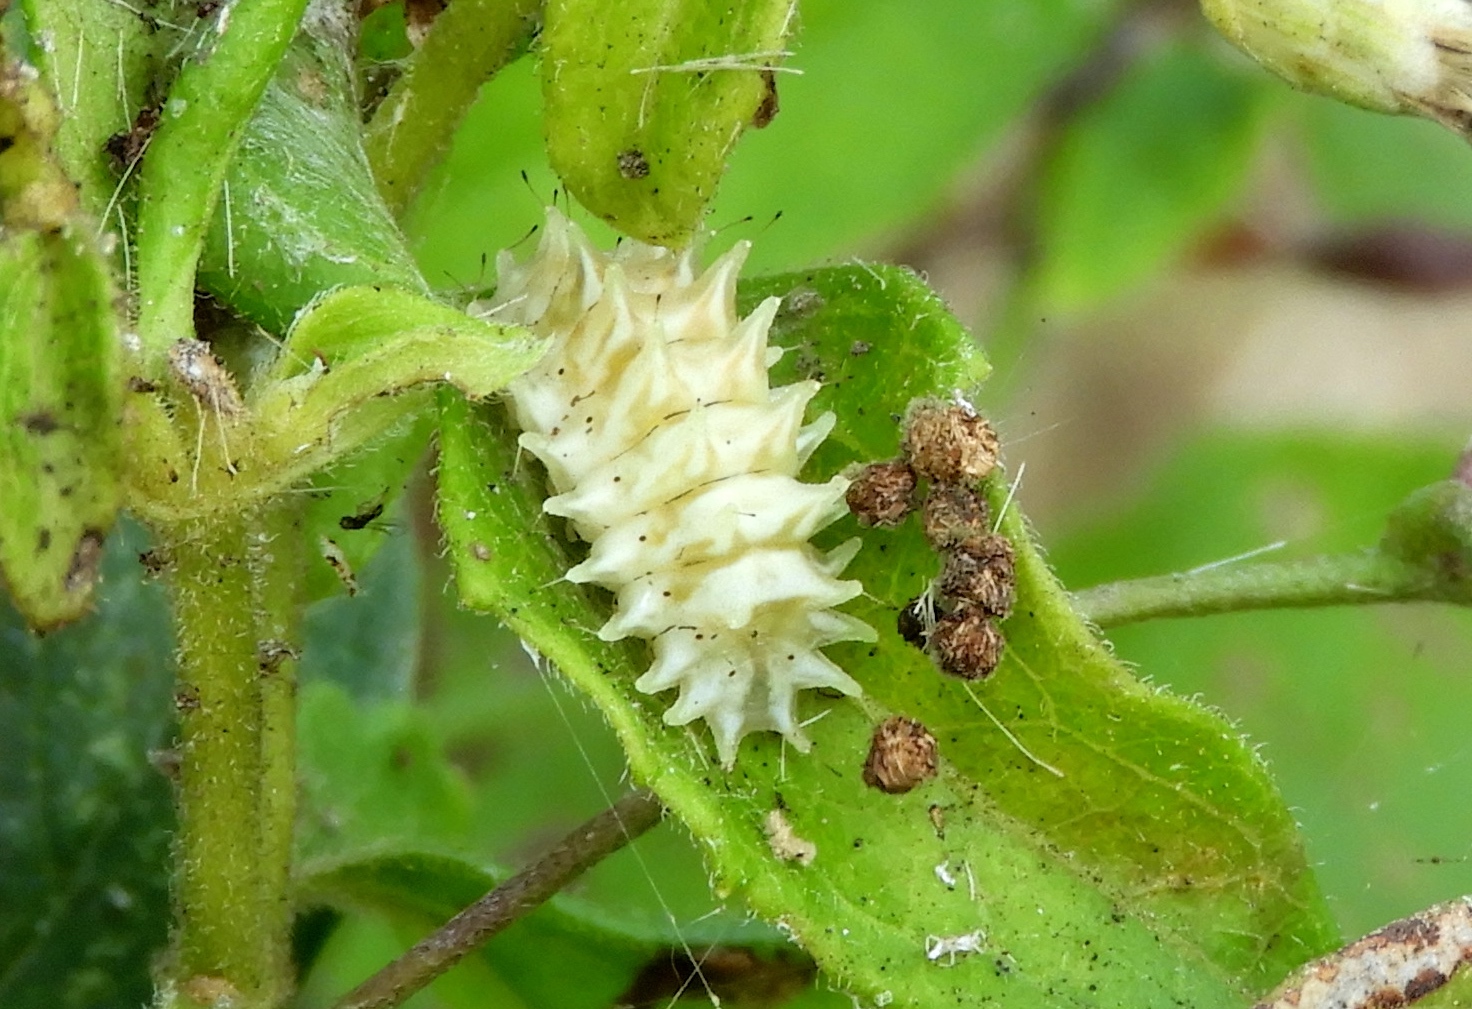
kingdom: Animalia
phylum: Arthropoda
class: Insecta
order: Lepidoptera
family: Lycaenidae
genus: Thecla
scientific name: Thecla marius
